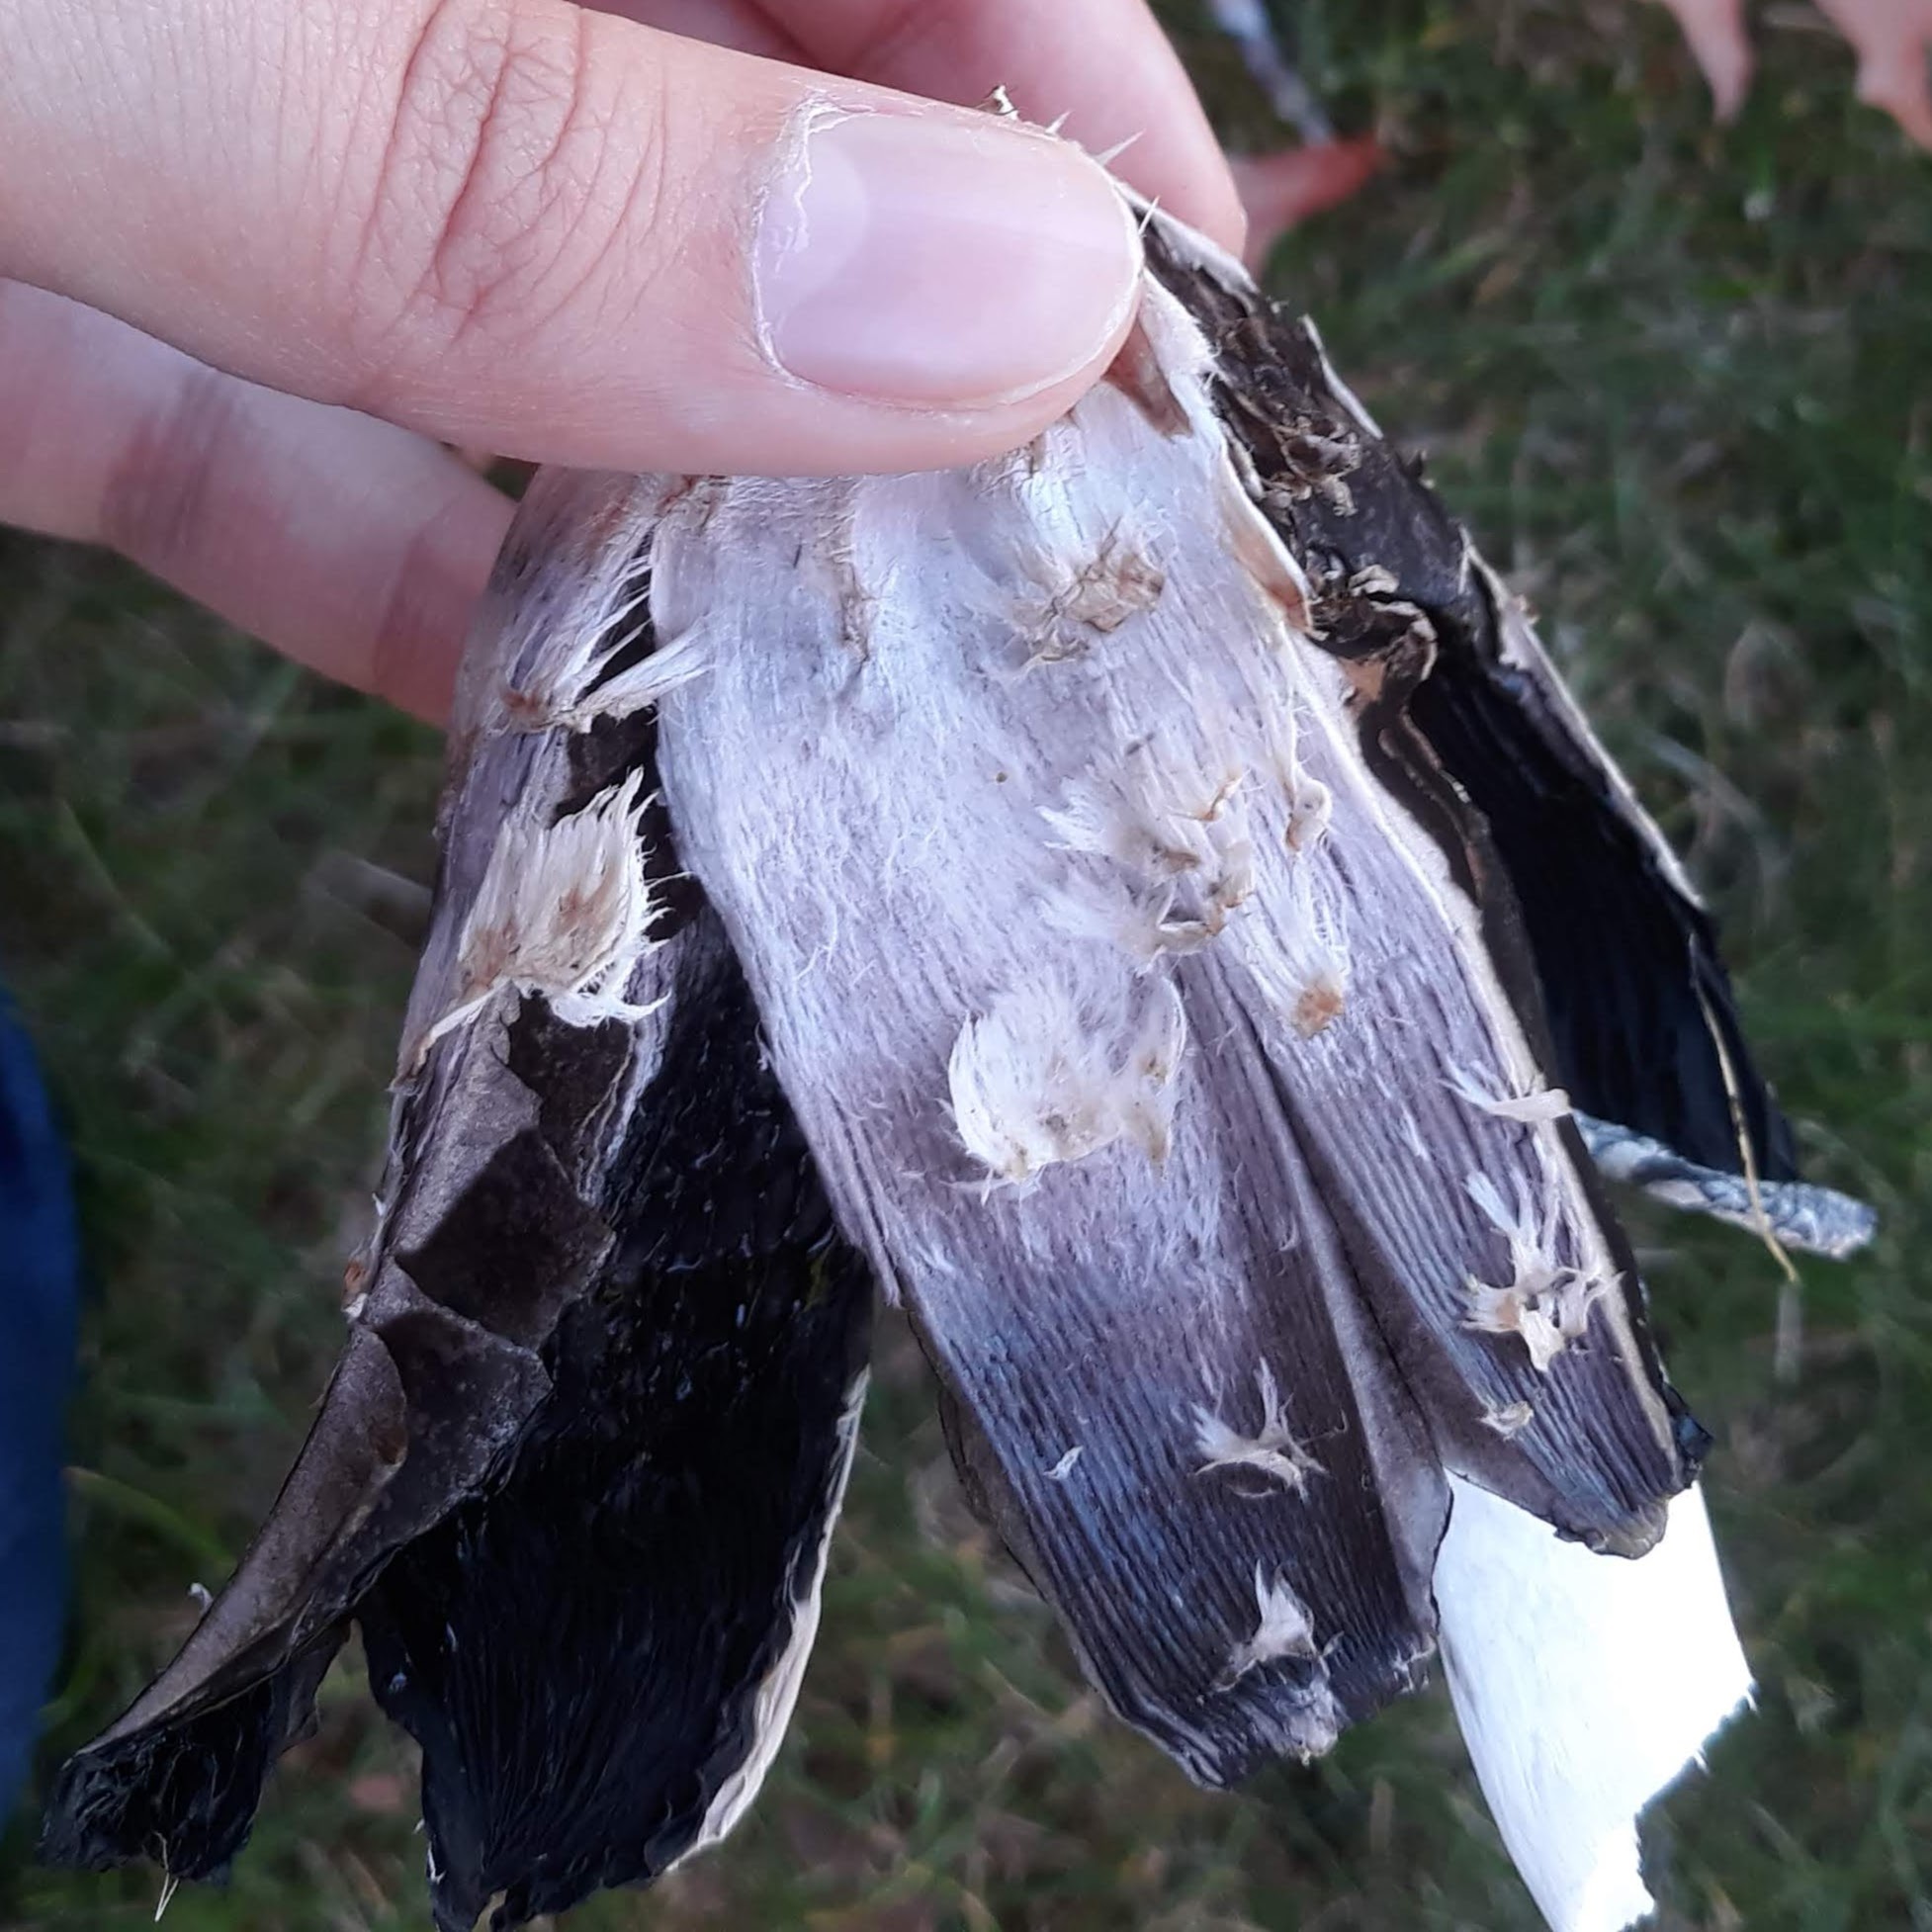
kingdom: Fungi
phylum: Basidiomycota
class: Agaricomycetes
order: Agaricales
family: Agaricaceae
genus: Coprinus
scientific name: Coprinus comatus
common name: Lawyer's wig
